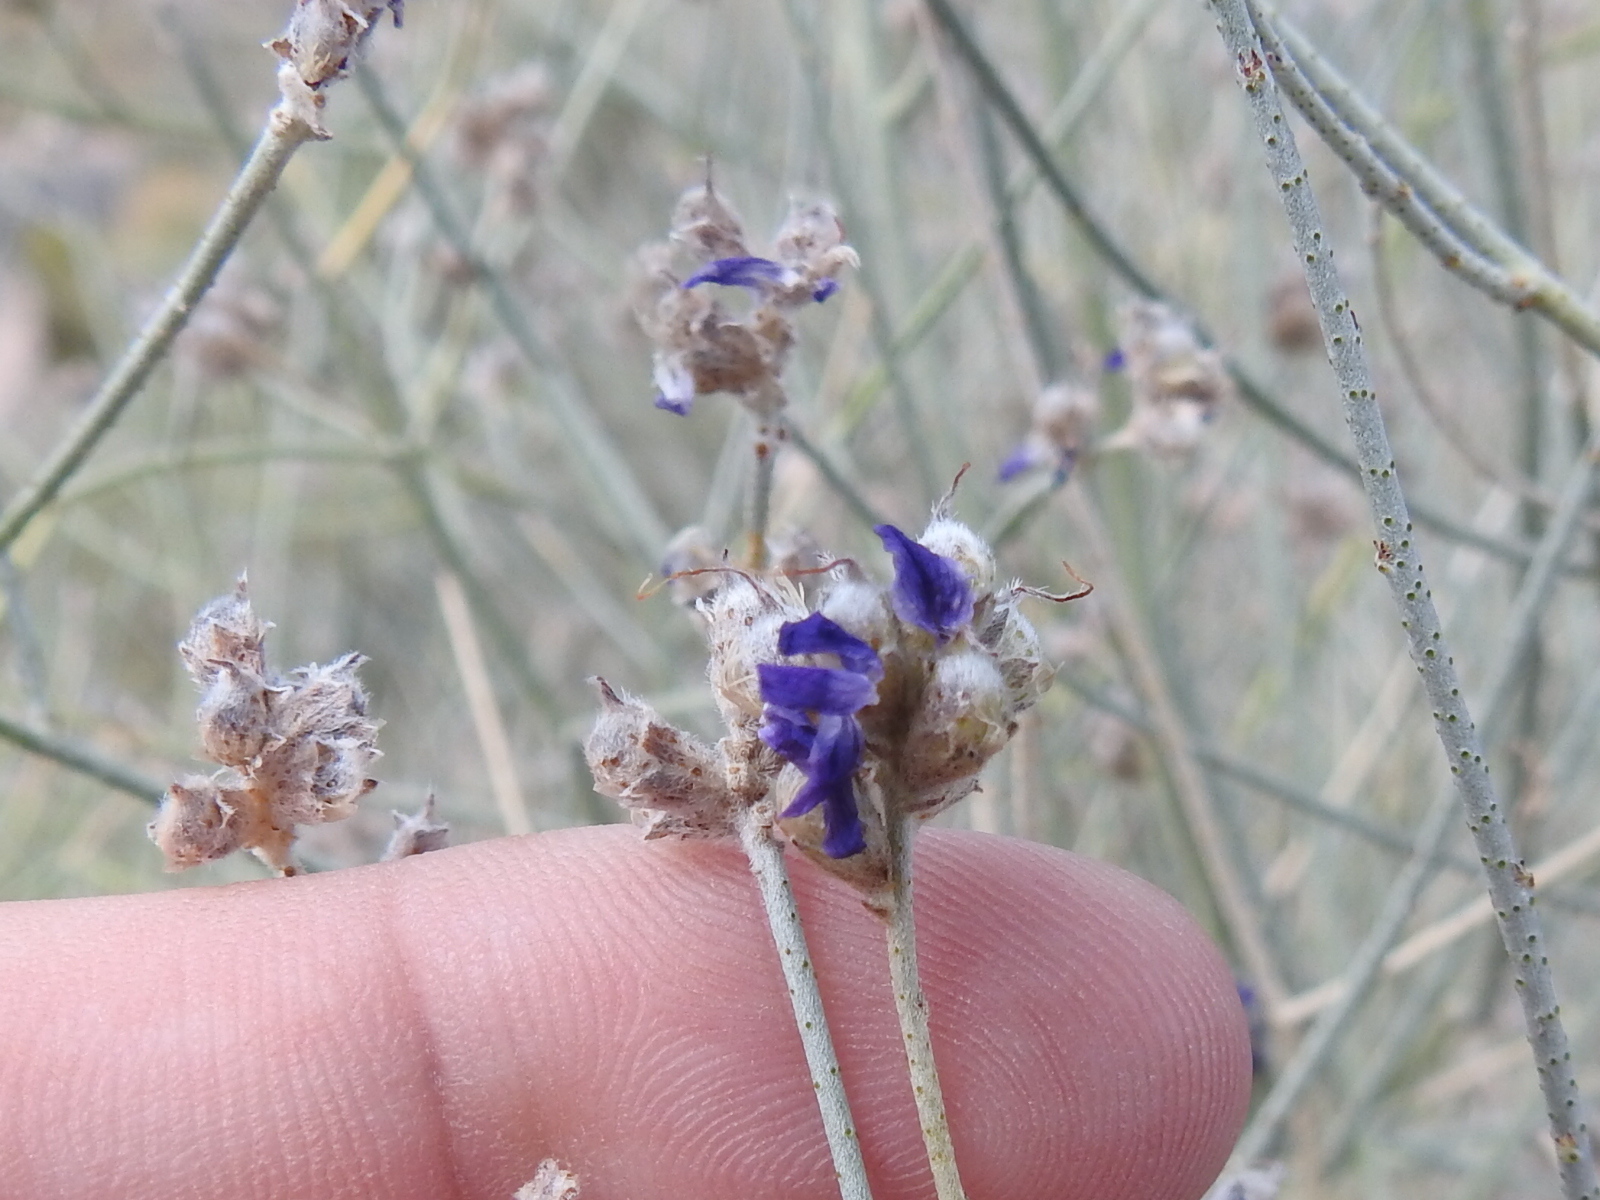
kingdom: Plantae
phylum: Tracheophyta
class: Magnoliopsida
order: Fabales
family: Fabaceae
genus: Psorothamnus
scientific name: Psorothamnus scoparius
